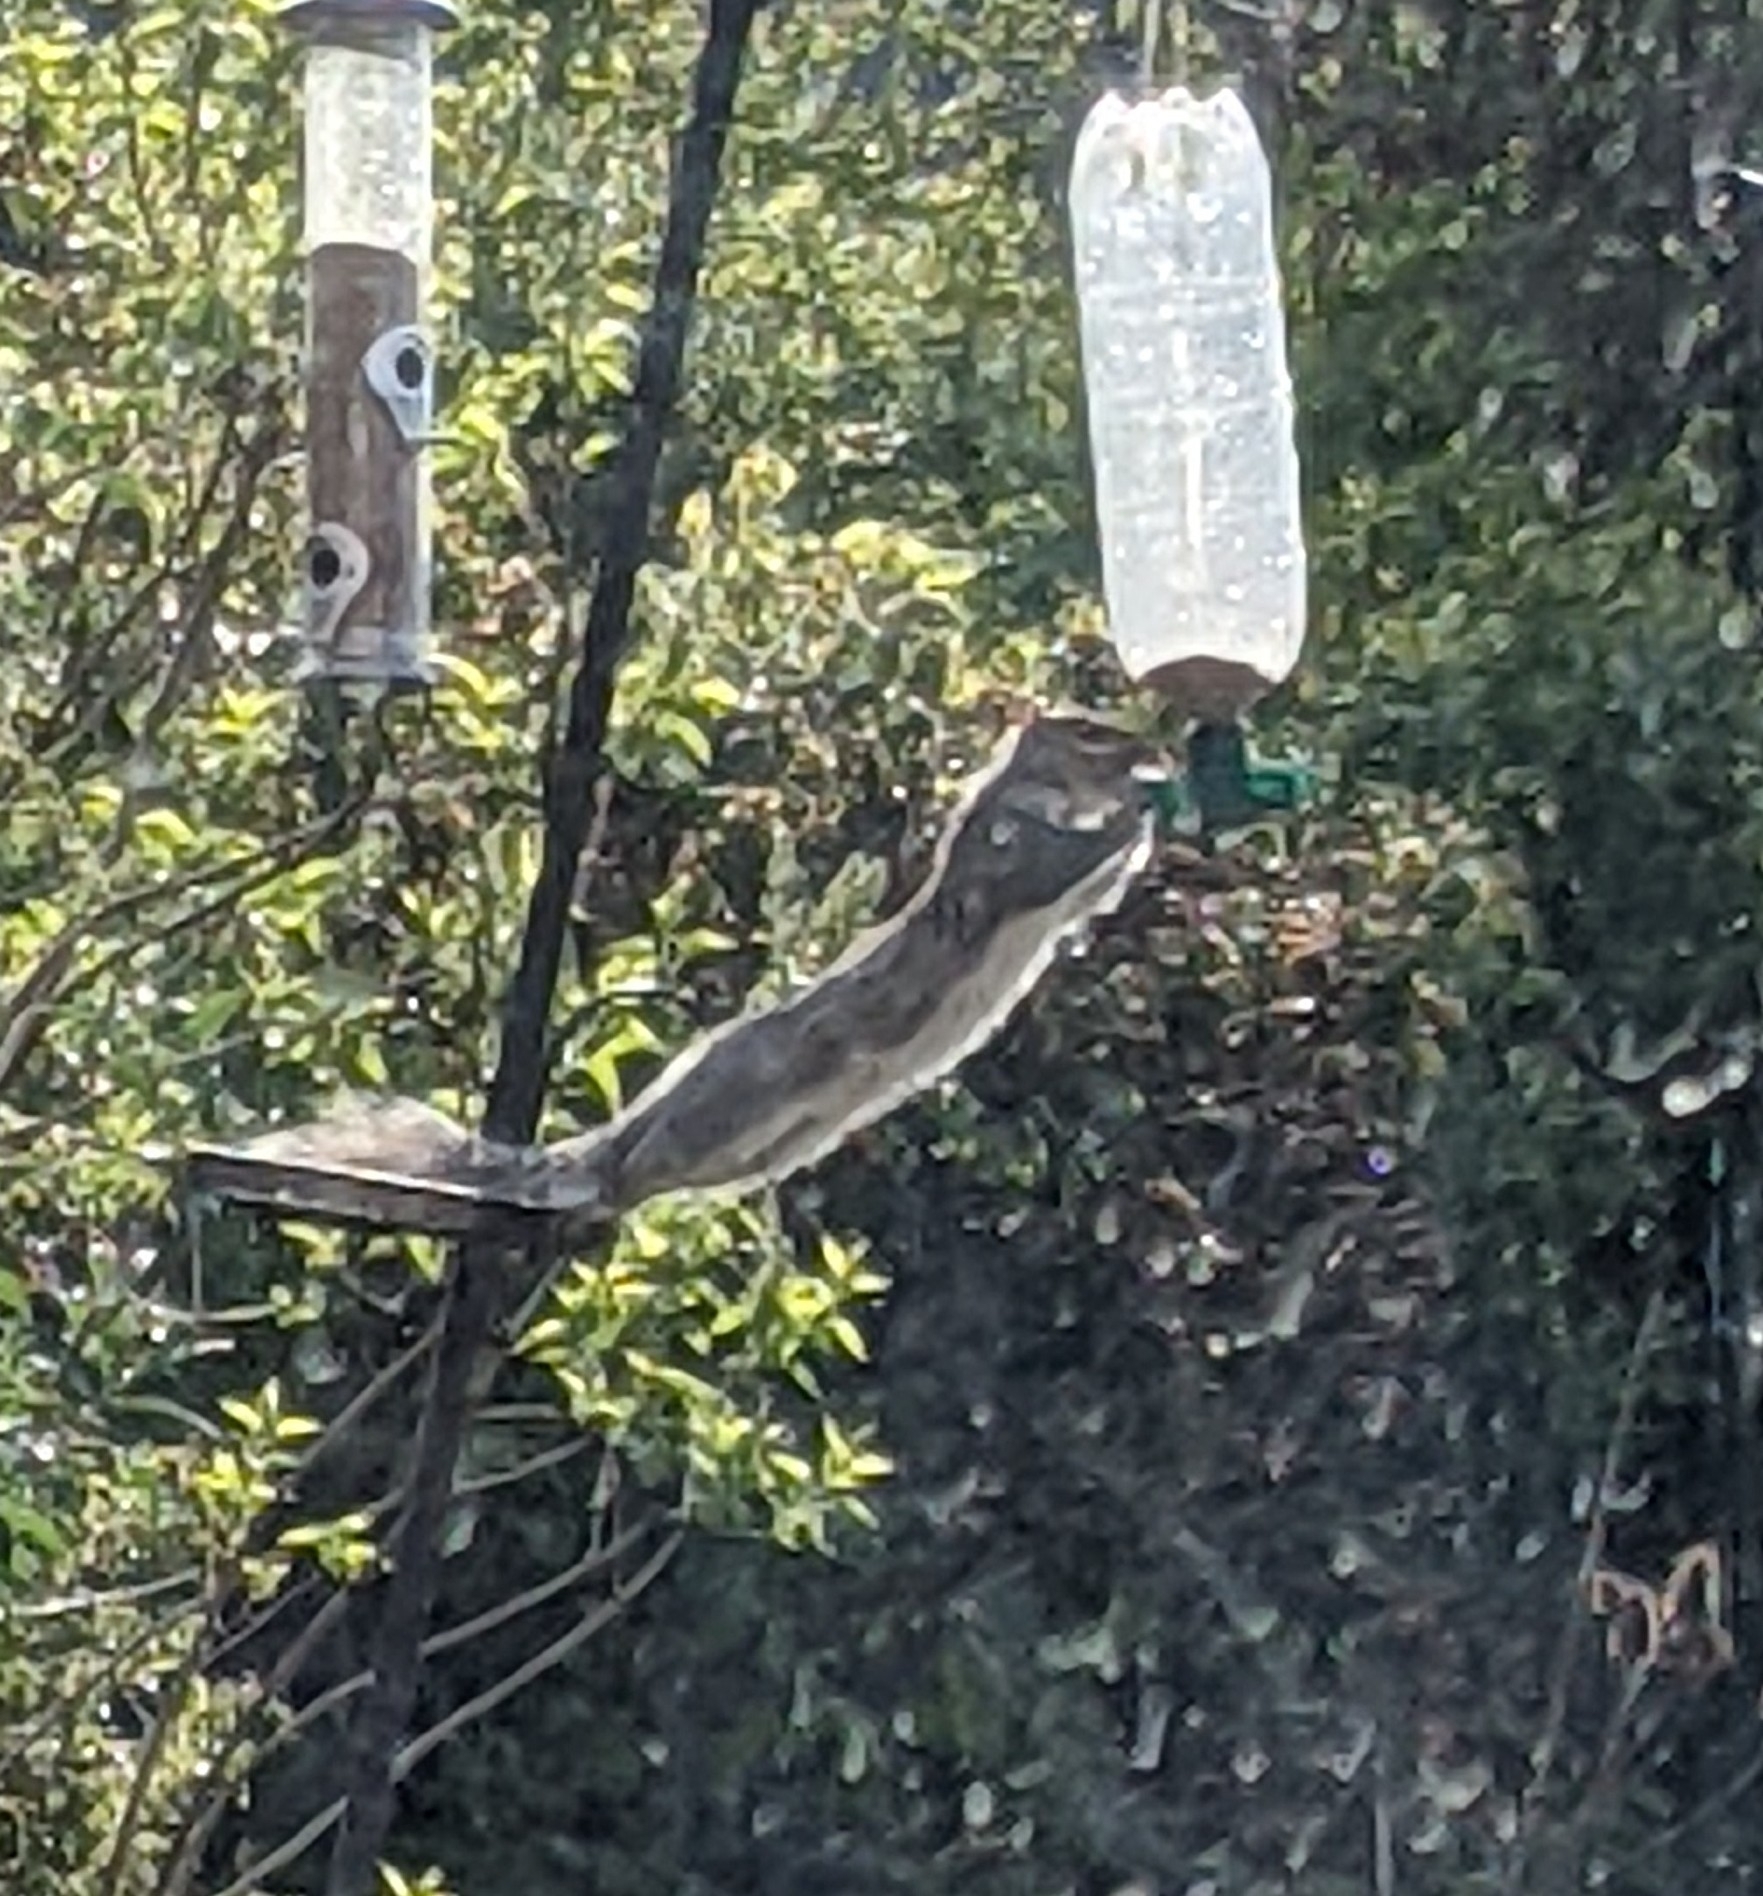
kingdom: Animalia
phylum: Chordata
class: Mammalia
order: Rodentia
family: Sciuridae
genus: Sciurus
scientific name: Sciurus carolinensis
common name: Eastern gray squirrel
